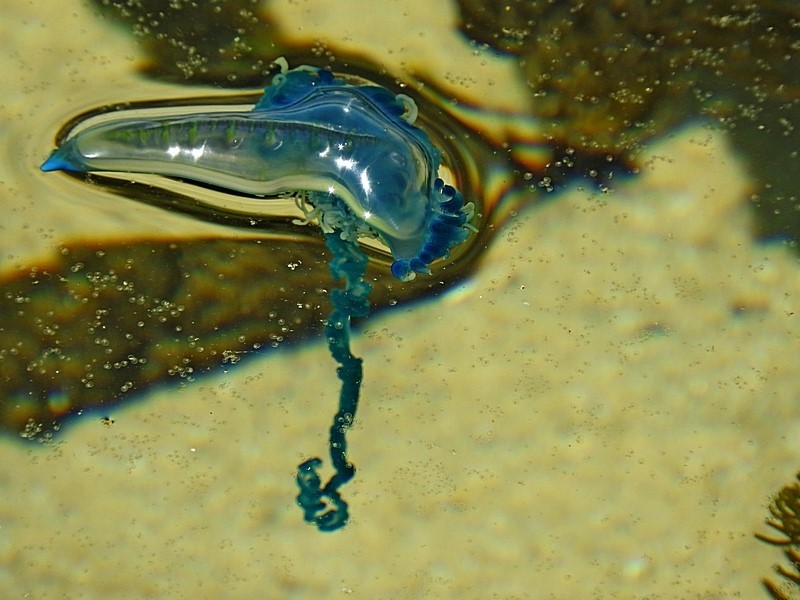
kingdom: Animalia
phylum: Cnidaria
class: Hydrozoa
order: Siphonophorae
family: Physaliidae
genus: Physalia
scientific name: Physalia physalis
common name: Portuguese man-of-war
